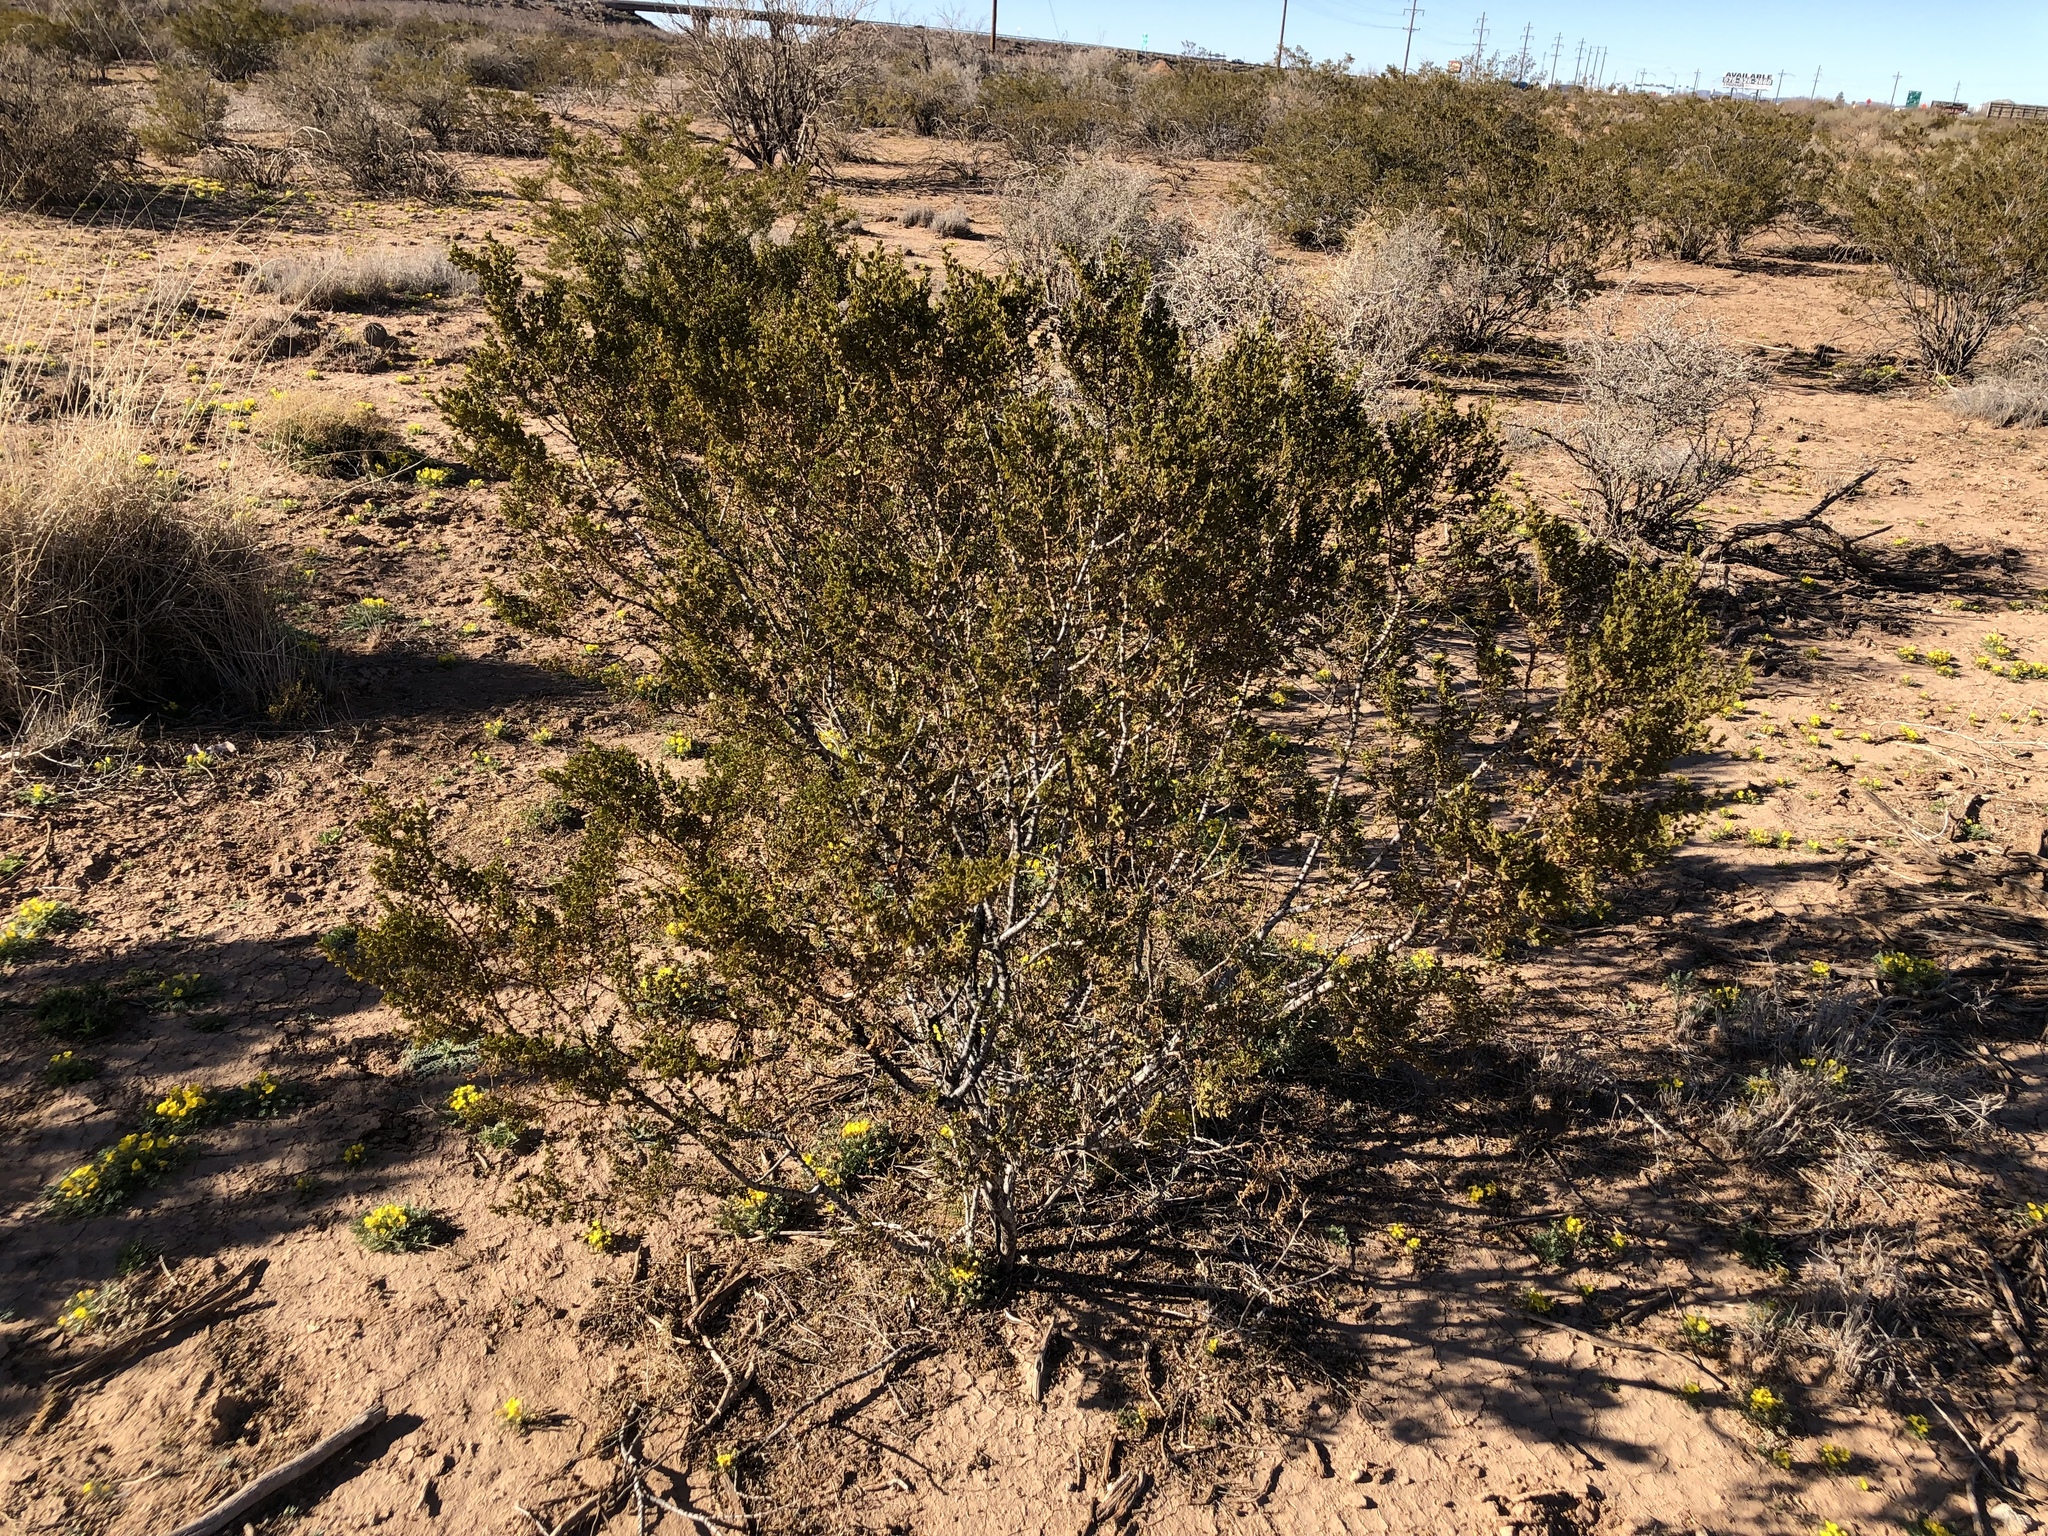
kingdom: Plantae
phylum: Tracheophyta
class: Magnoliopsida
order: Zygophyllales
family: Zygophyllaceae
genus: Larrea
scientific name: Larrea tridentata
